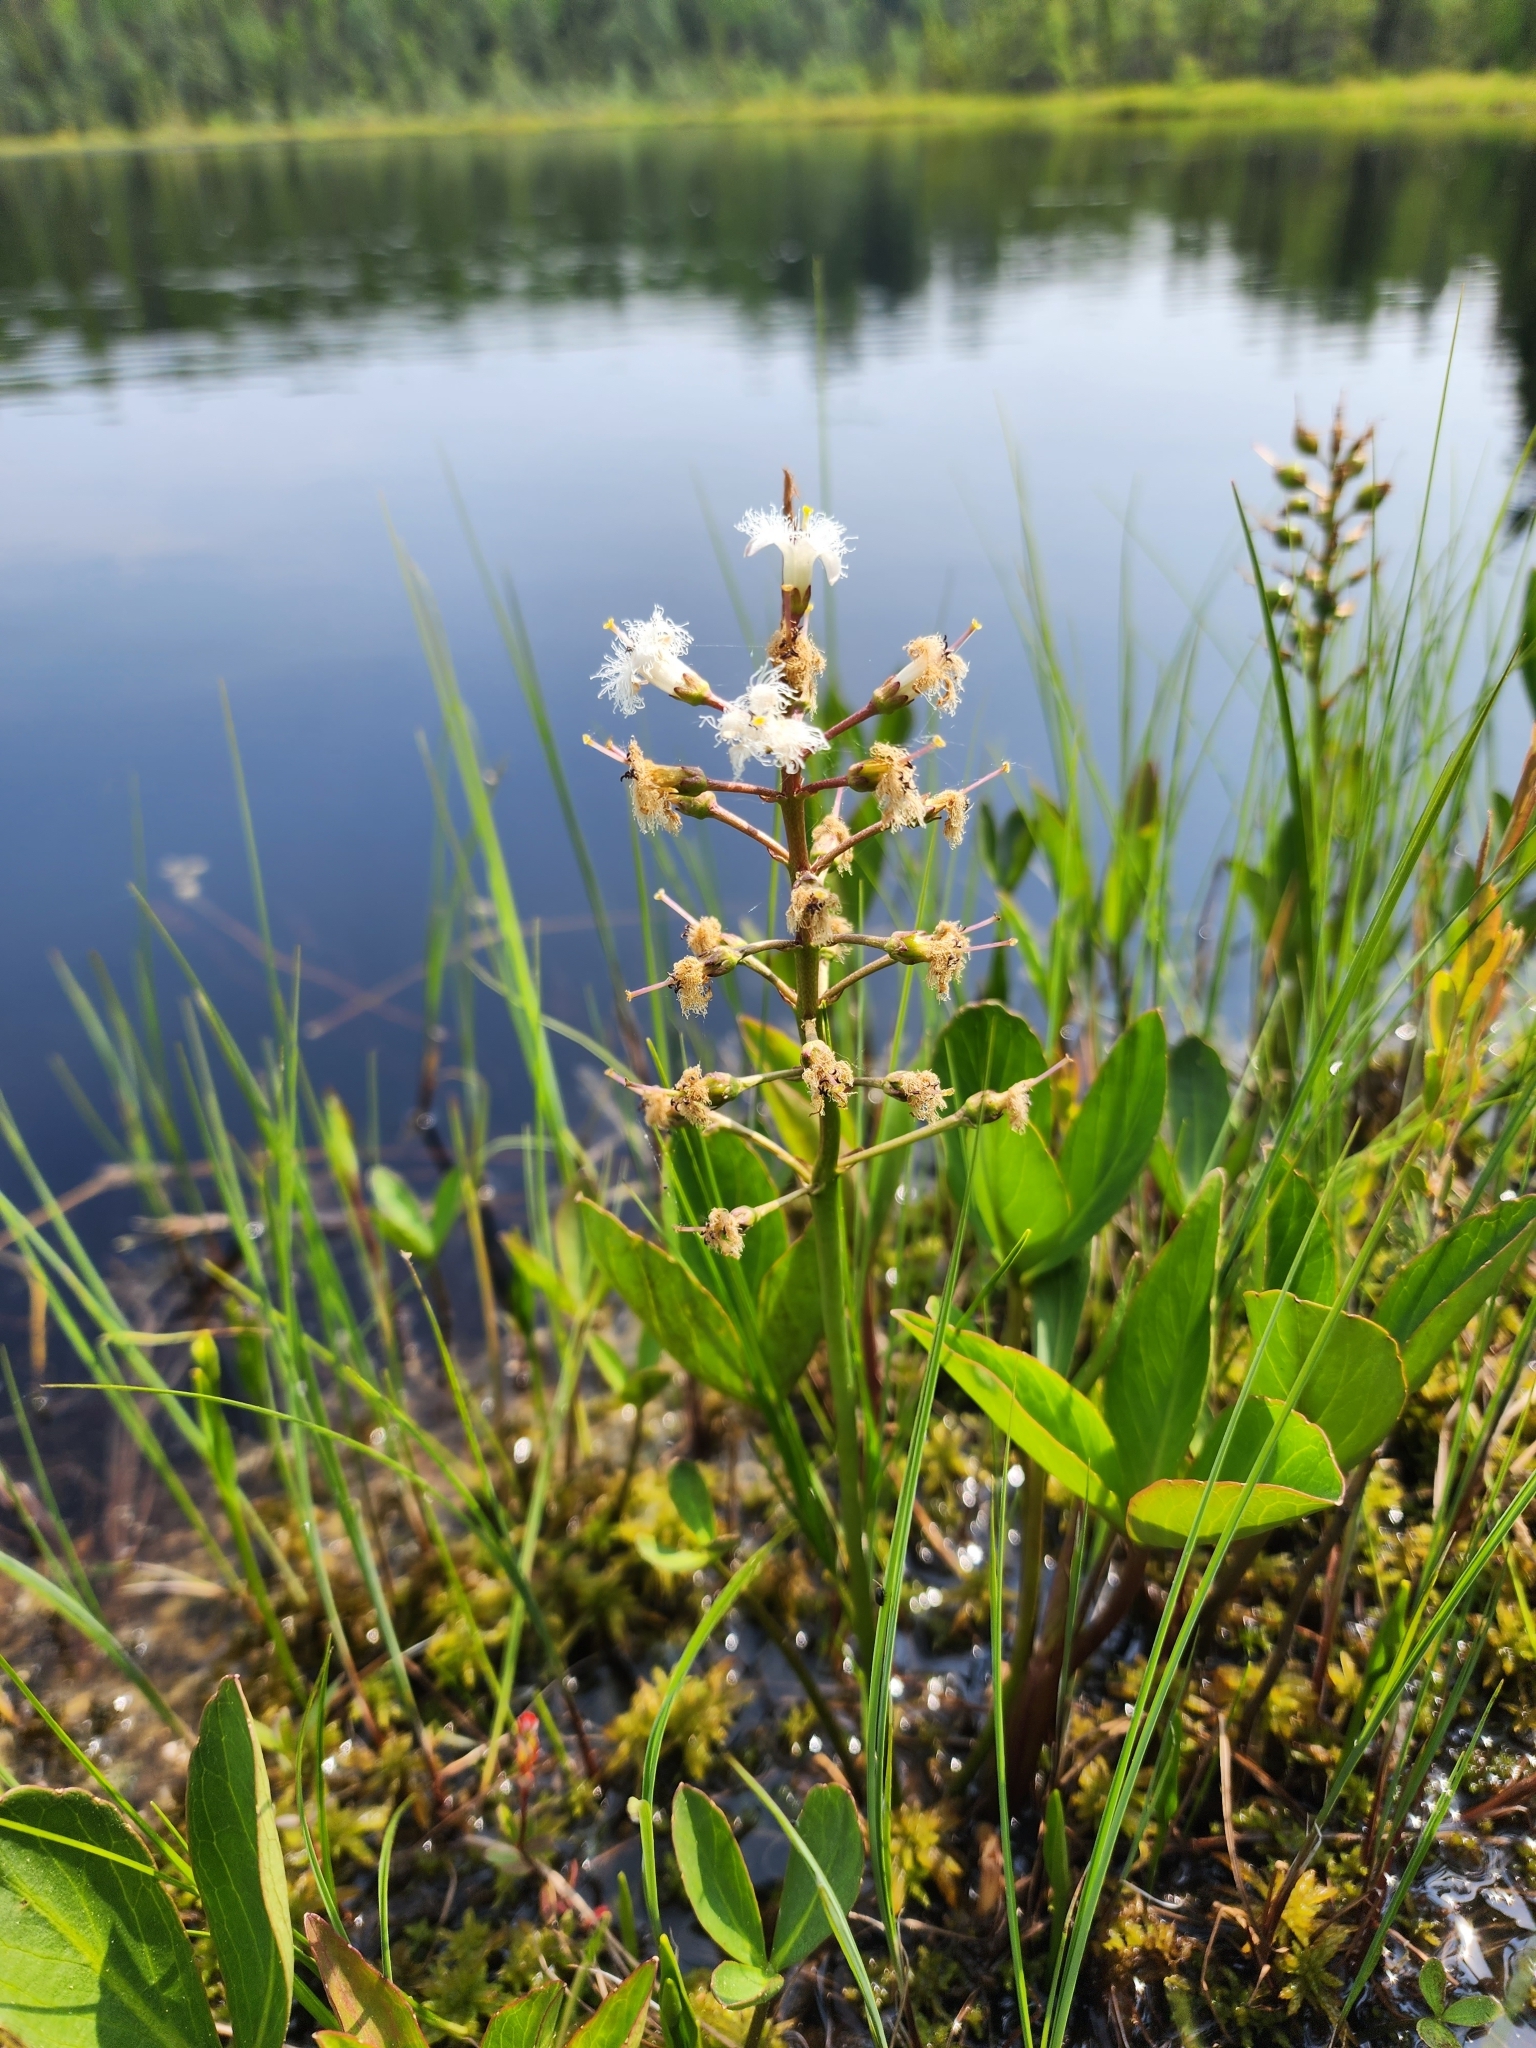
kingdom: Plantae
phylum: Tracheophyta
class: Magnoliopsida
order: Asterales
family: Menyanthaceae
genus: Menyanthes
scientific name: Menyanthes trifoliata
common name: Bogbean
